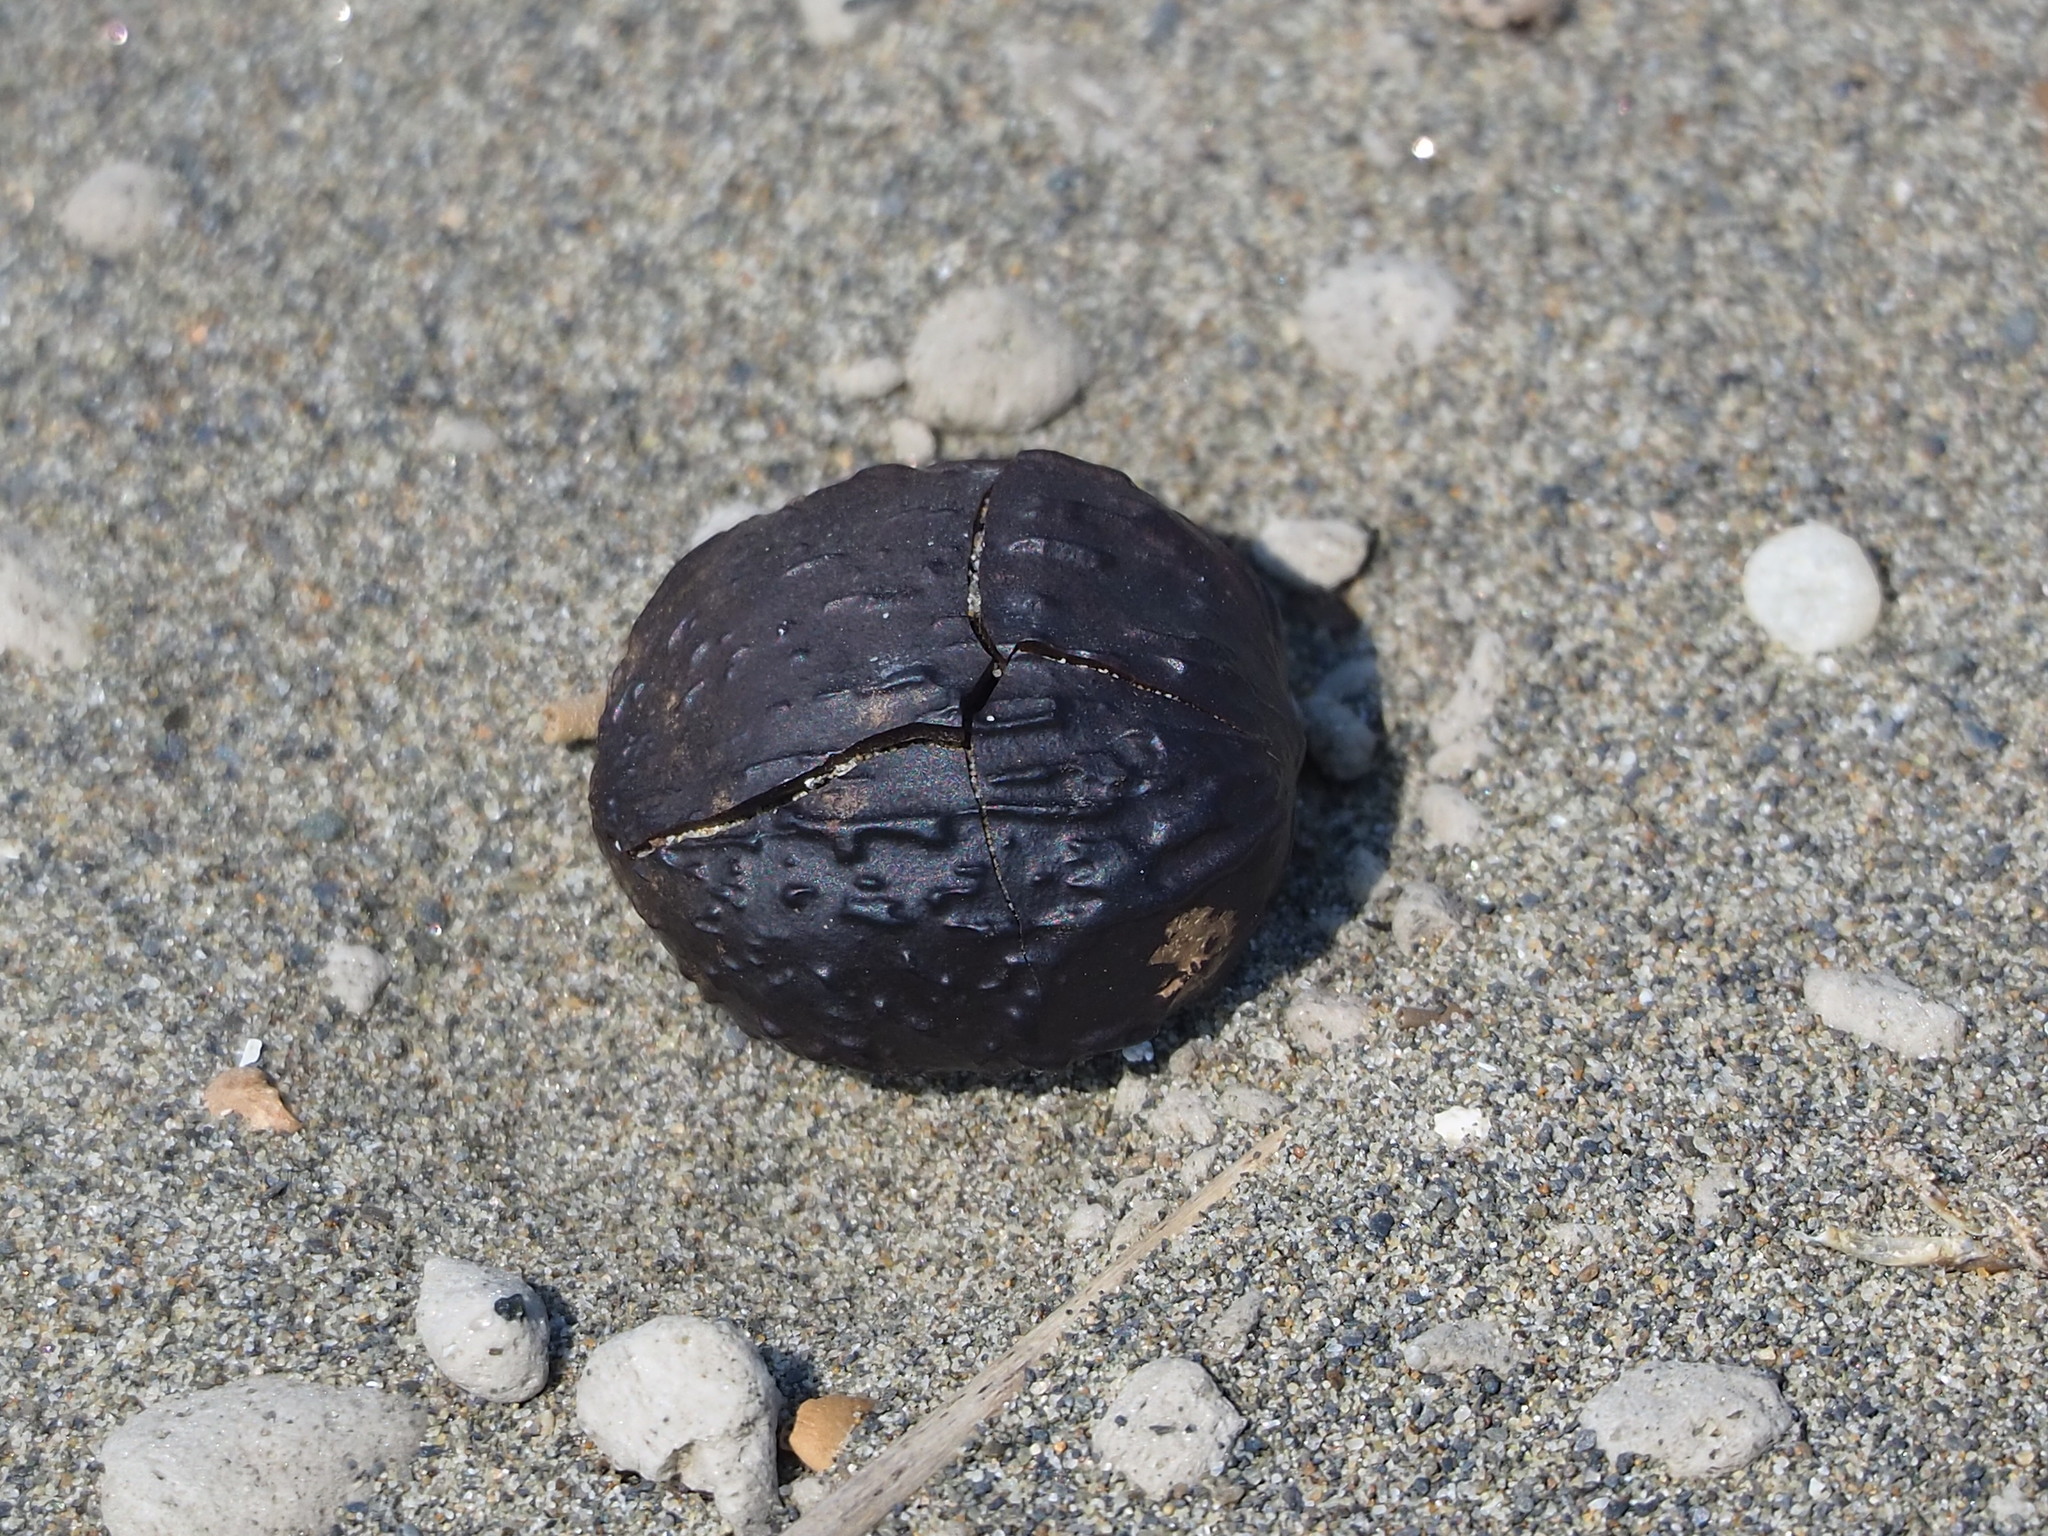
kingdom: Plantae
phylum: Tracheophyta
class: Magnoliopsida
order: Malpighiales
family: Euphorbiaceae
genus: Vernicia
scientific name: Vernicia montana
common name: Mu oil tree
